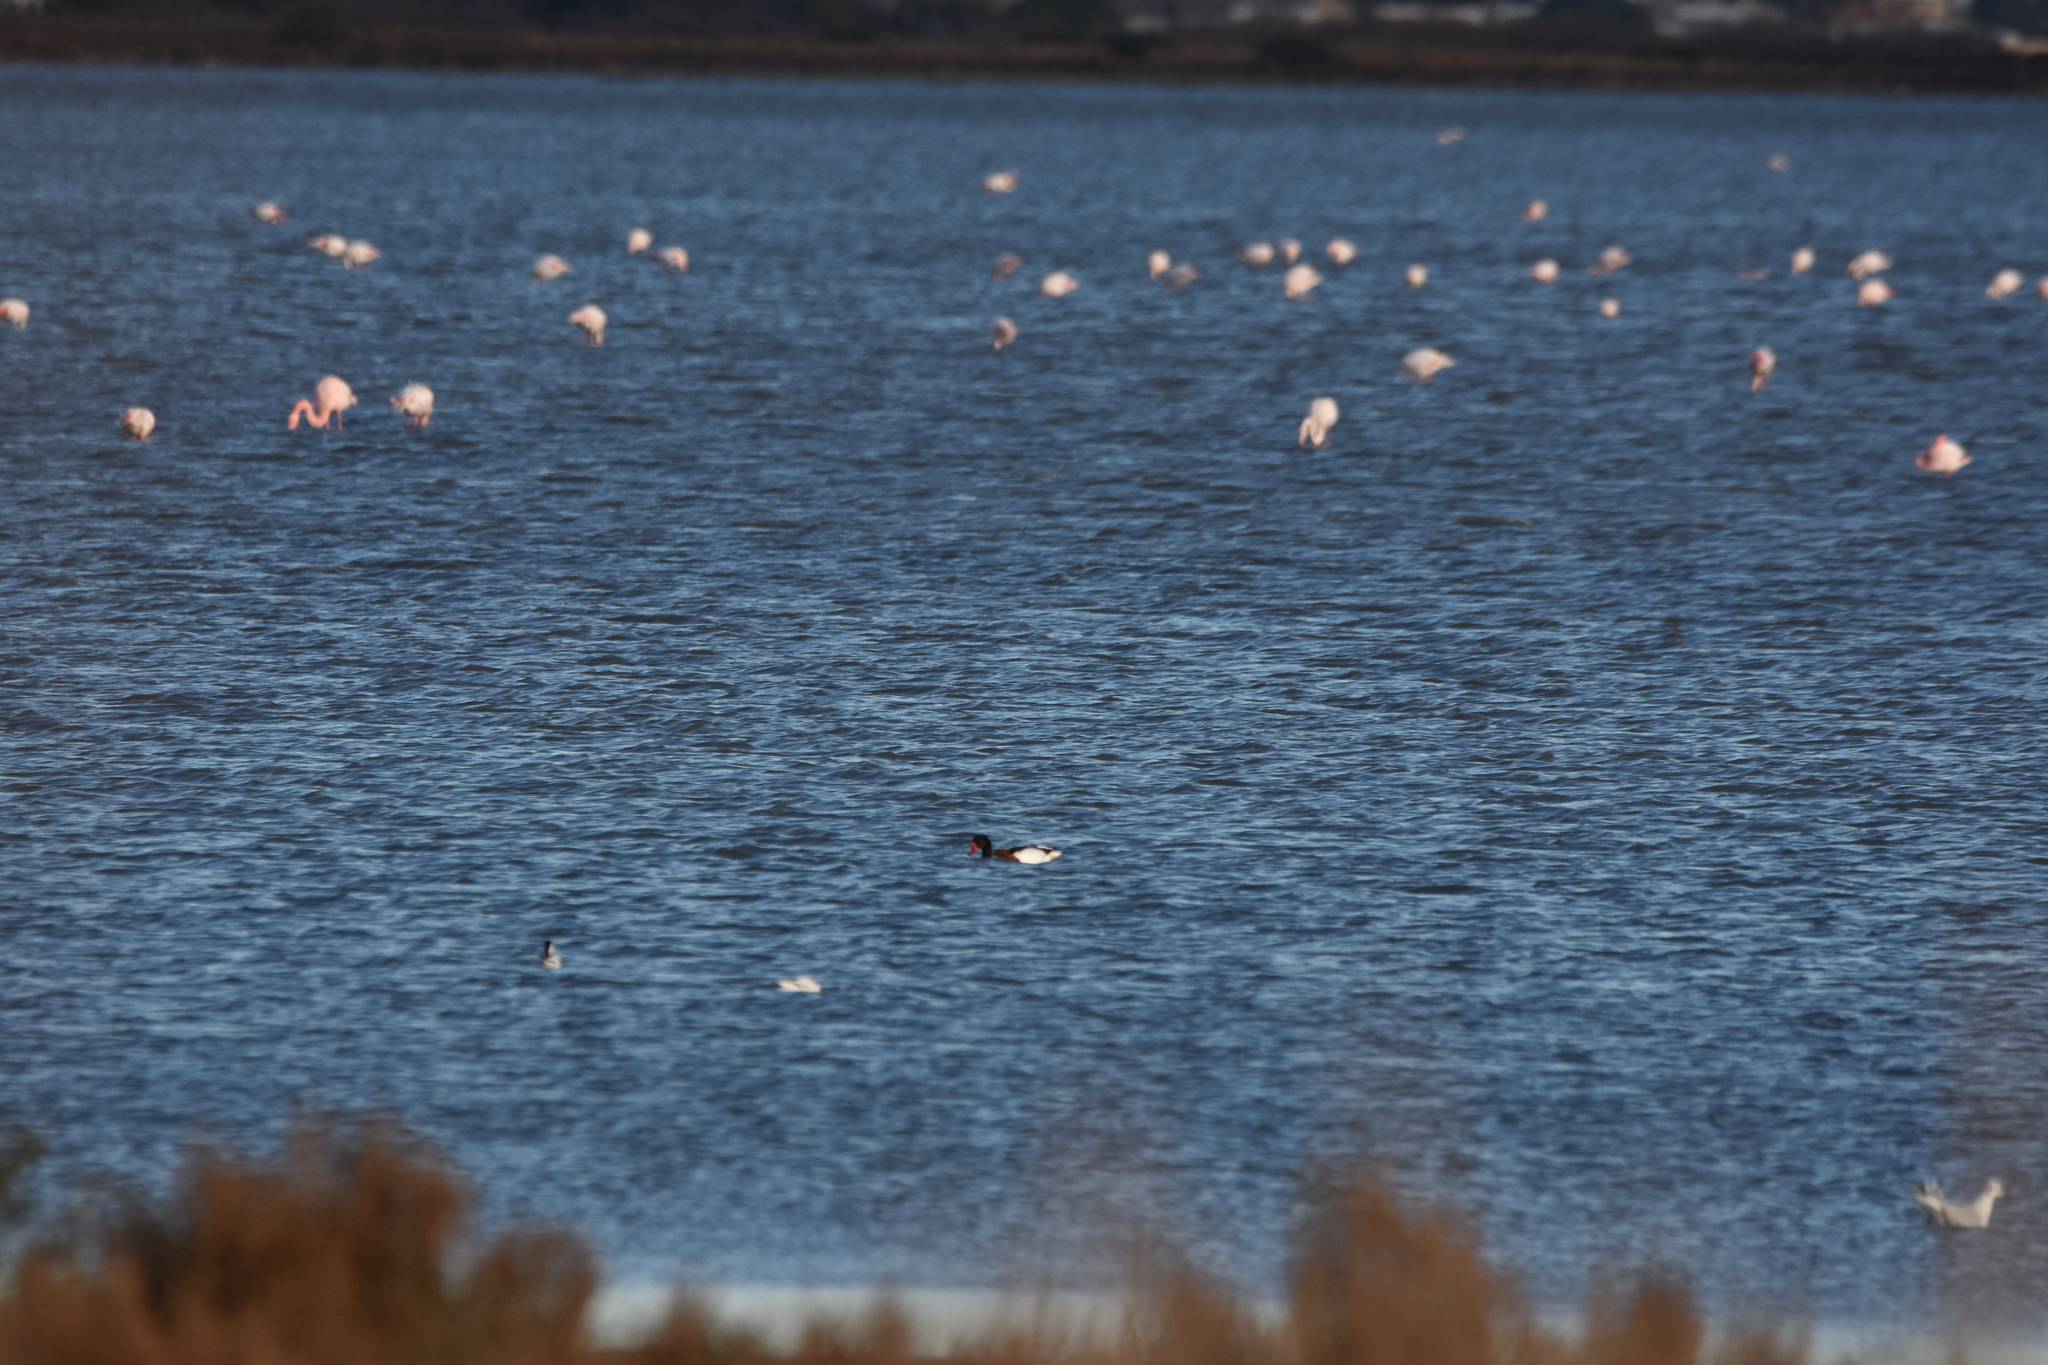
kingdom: Animalia
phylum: Chordata
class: Aves
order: Anseriformes
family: Anatidae
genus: Tadorna
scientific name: Tadorna tadorna
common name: Common shelduck
